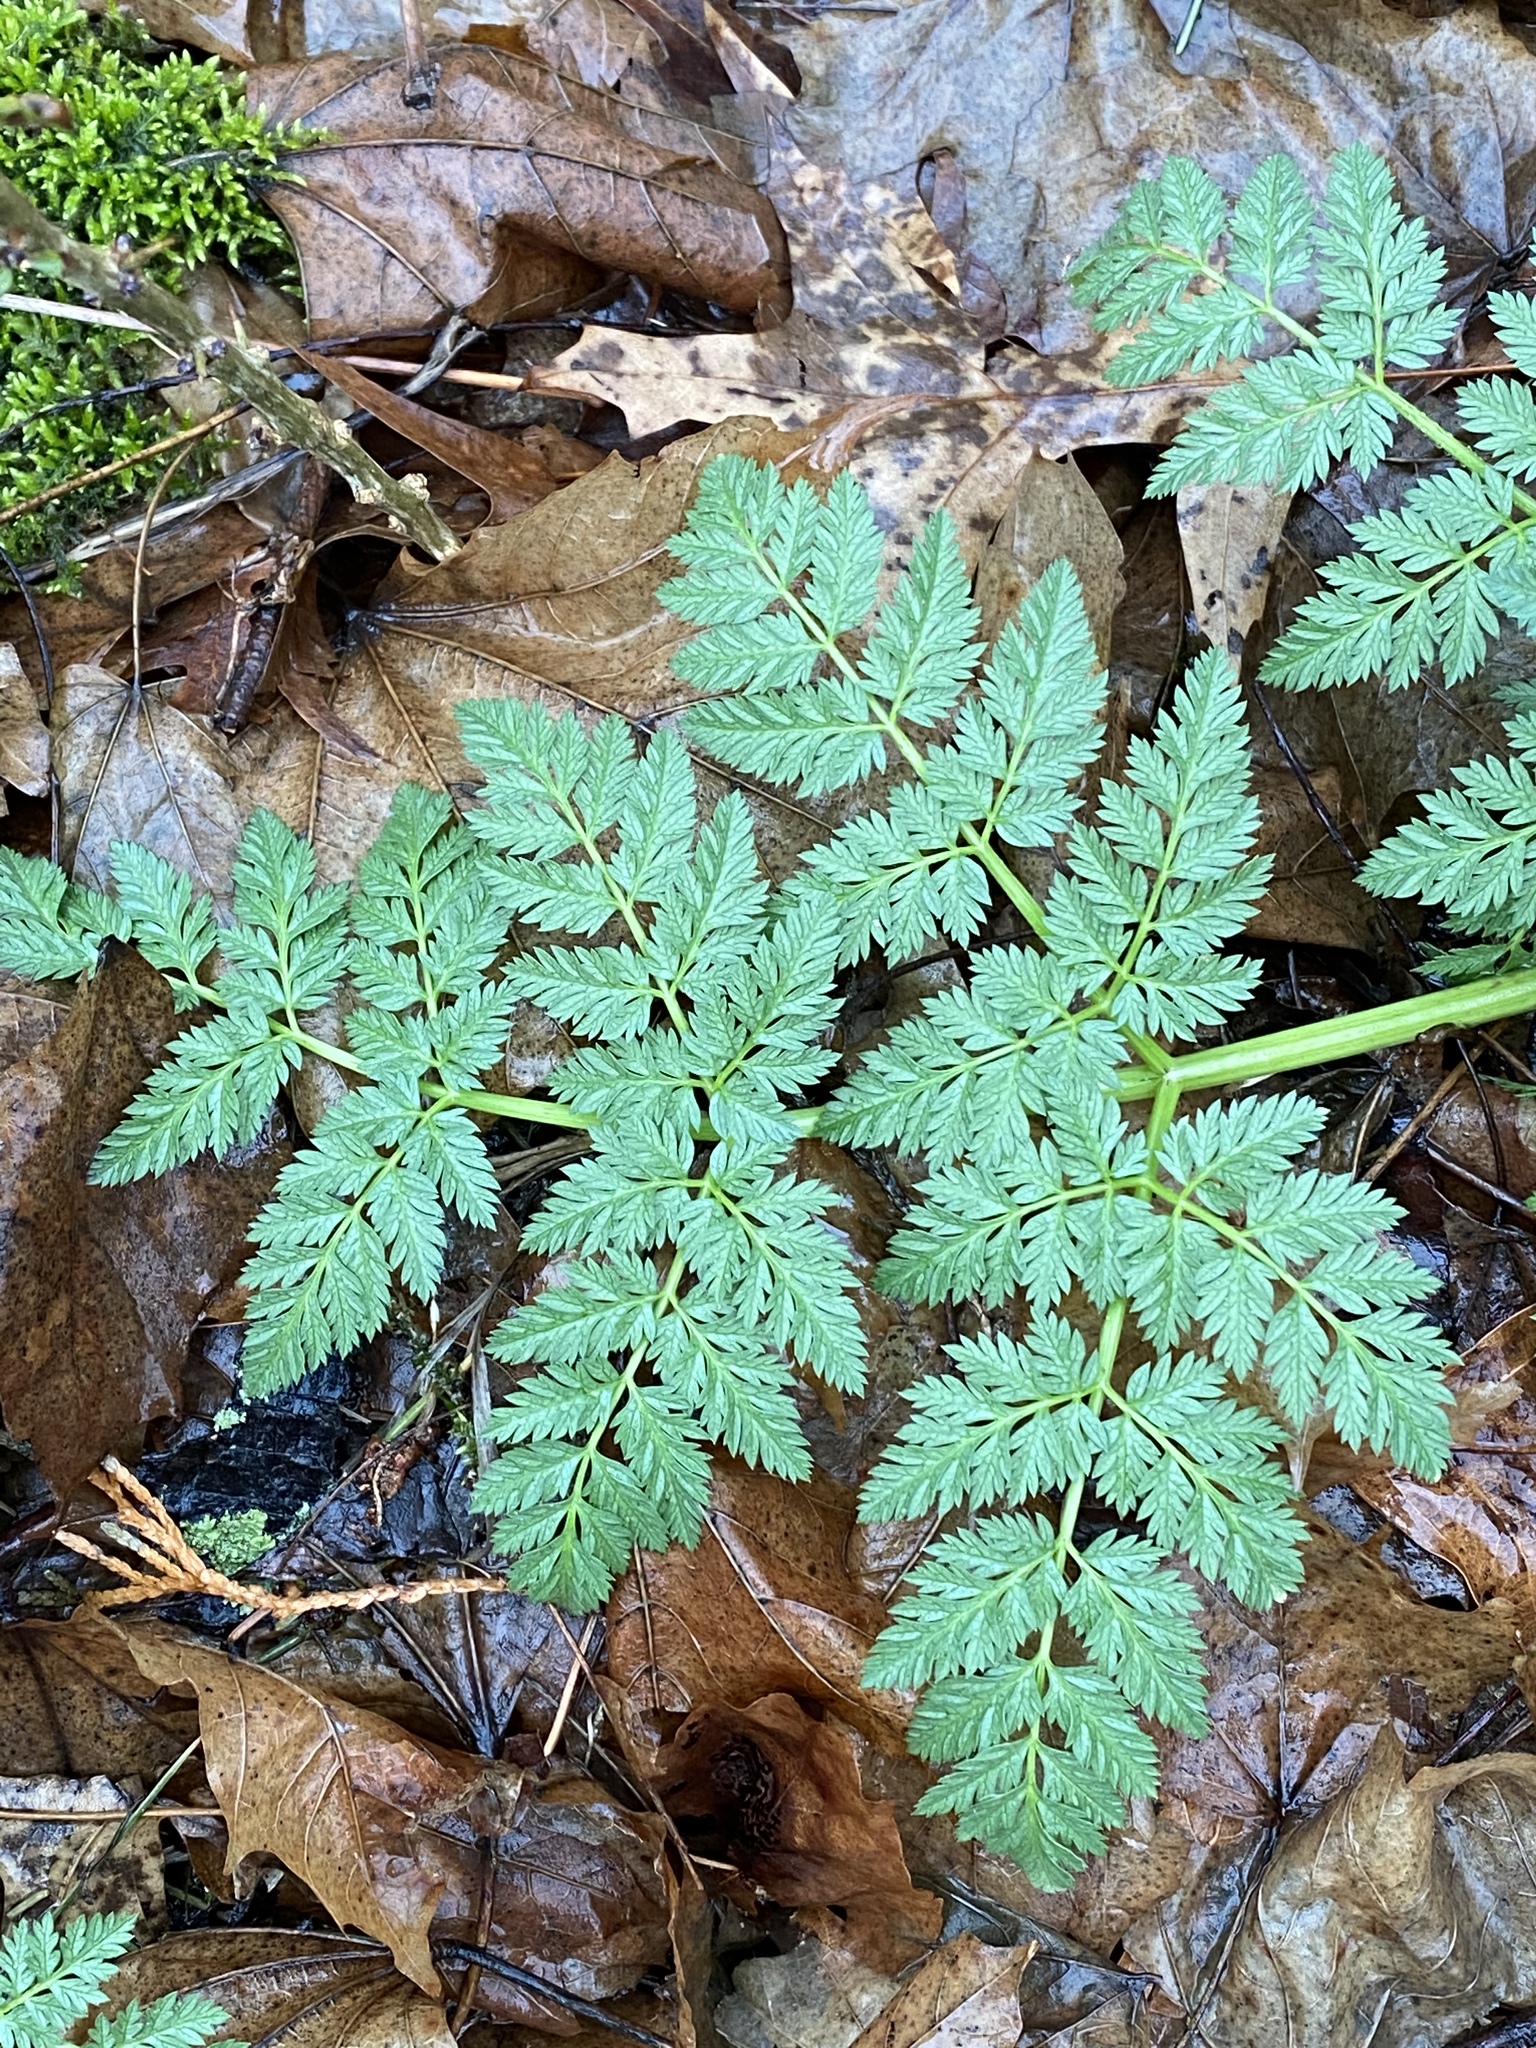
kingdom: Plantae
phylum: Tracheophyta
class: Magnoliopsida
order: Apiales
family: Apiaceae
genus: Conium
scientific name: Conium maculatum
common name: Hemlock
